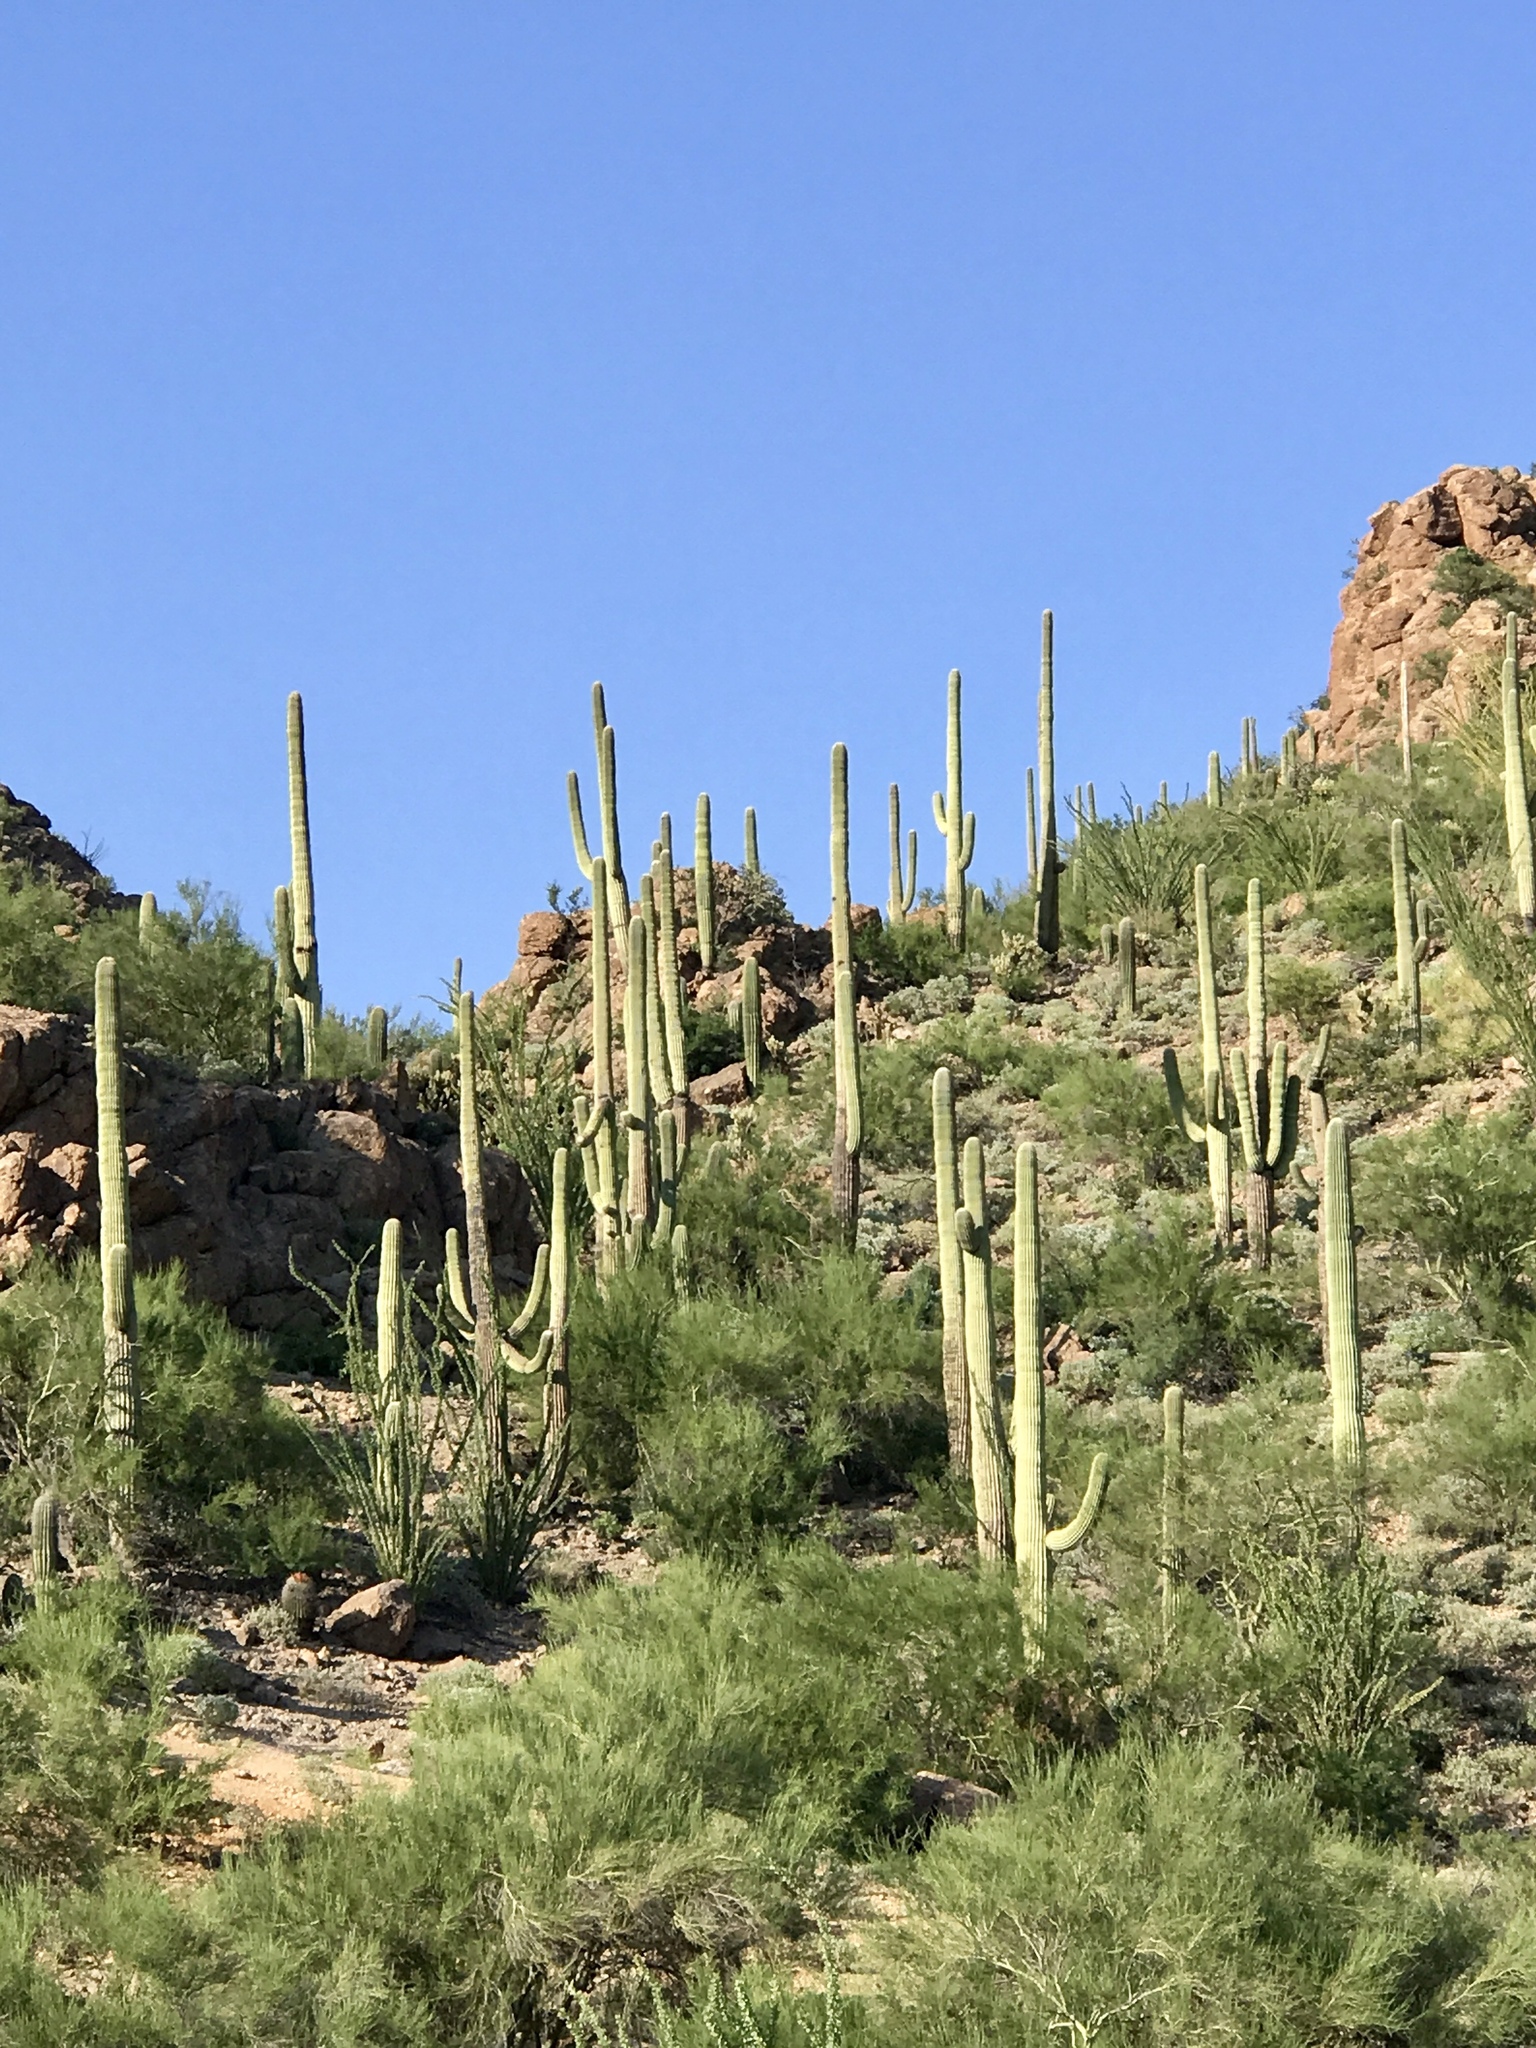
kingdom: Plantae
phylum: Tracheophyta
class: Magnoliopsida
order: Caryophyllales
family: Cactaceae
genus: Carnegiea
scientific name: Carnegiea gigantea
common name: Saguaro
